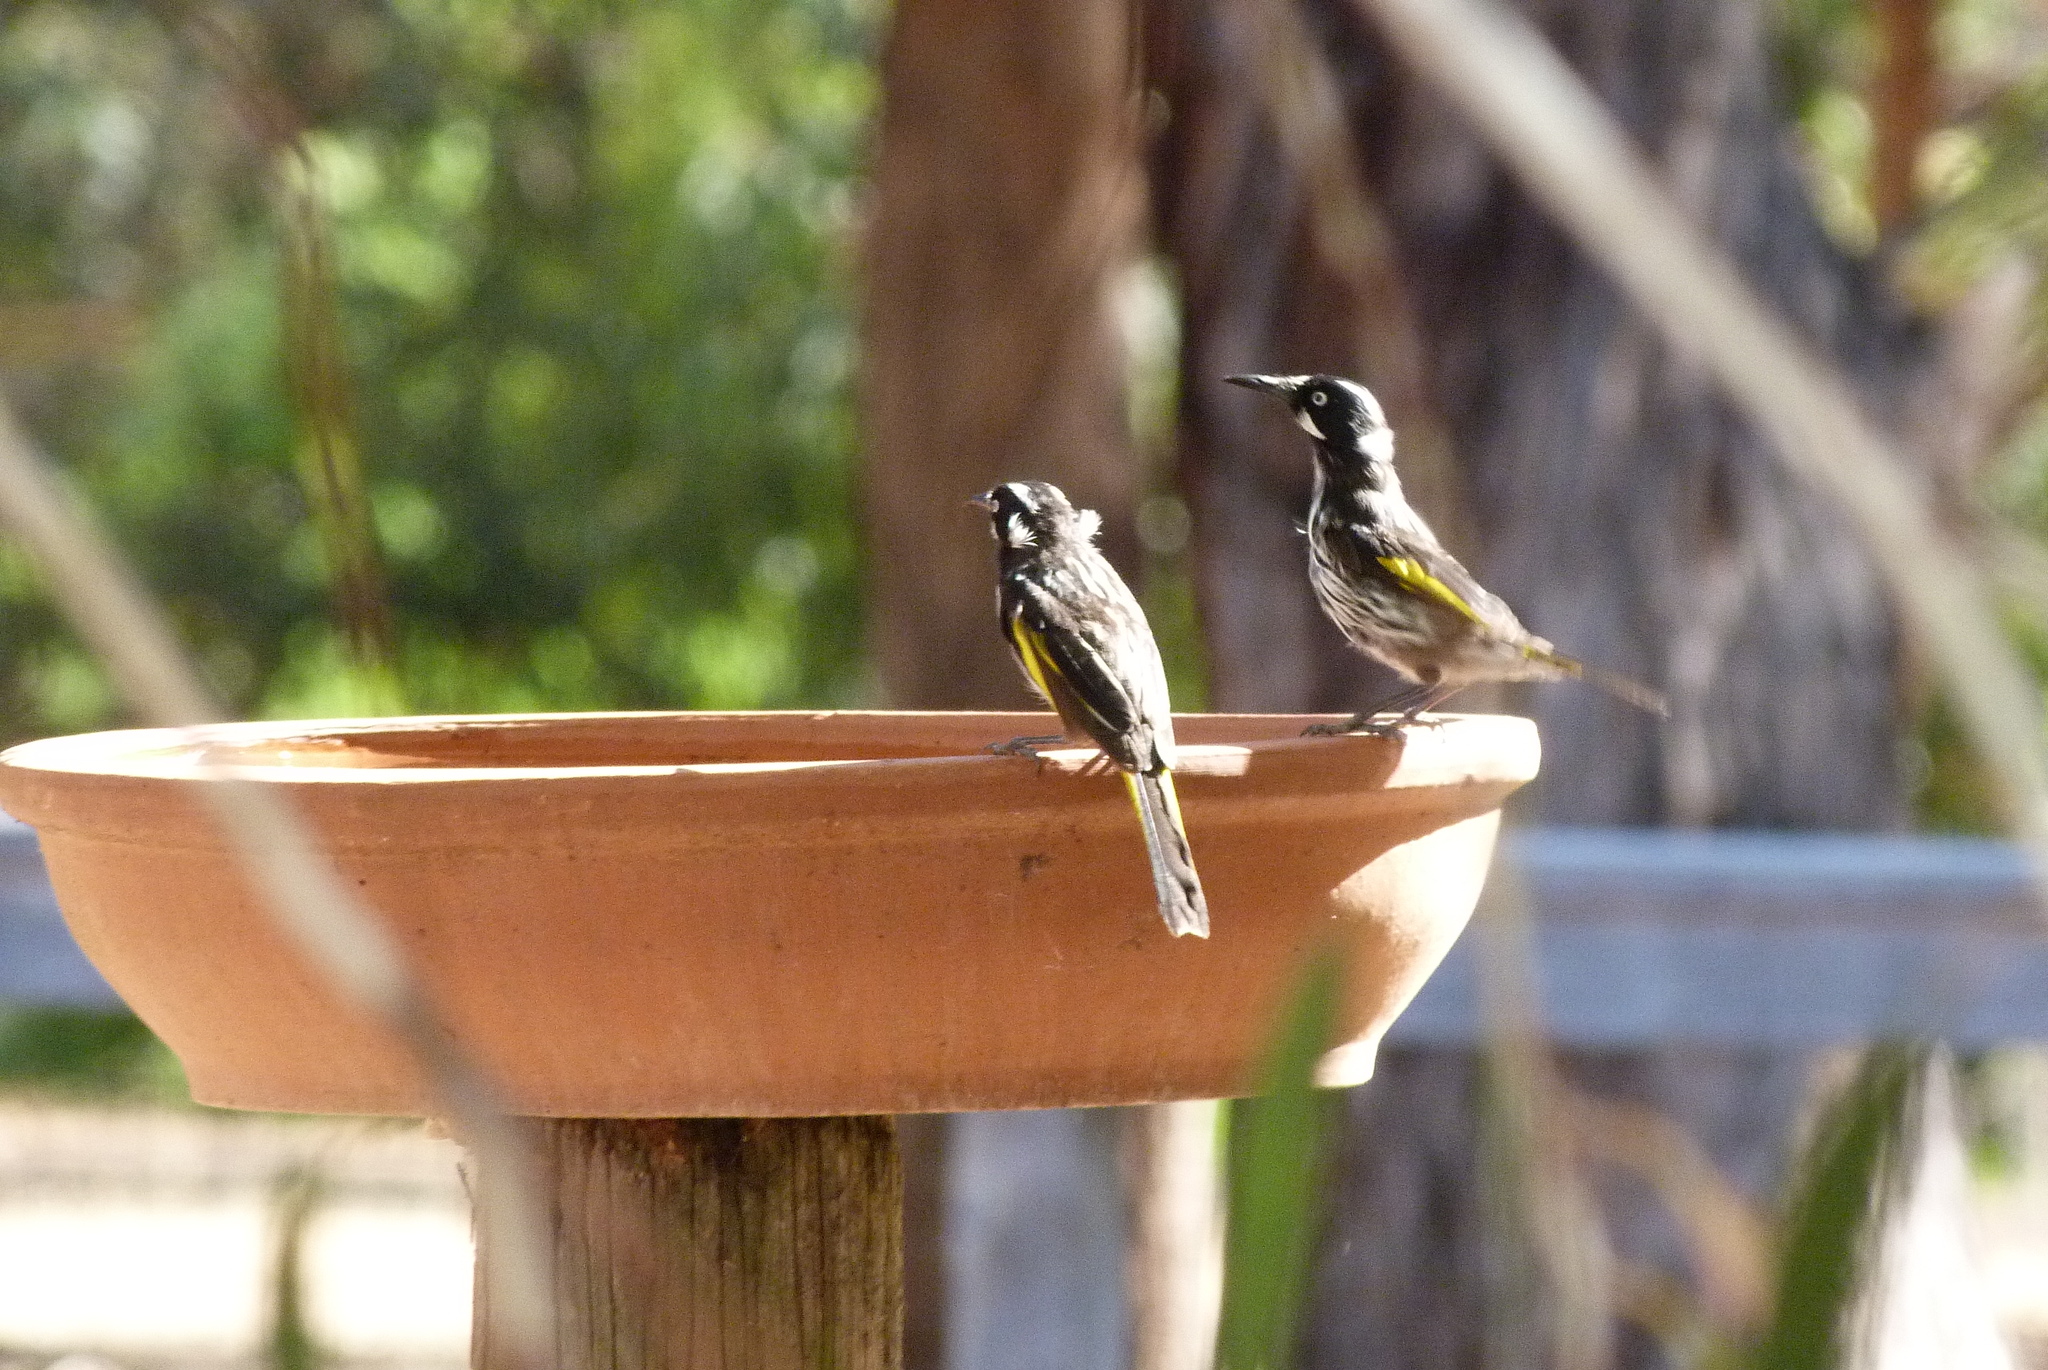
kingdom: Animalia
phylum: Chordata
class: Aves
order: Passeriformes
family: Meliphagidae
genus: Phylidonyris
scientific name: Phylidonyris novaehollandiae
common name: New holland honeyeater
